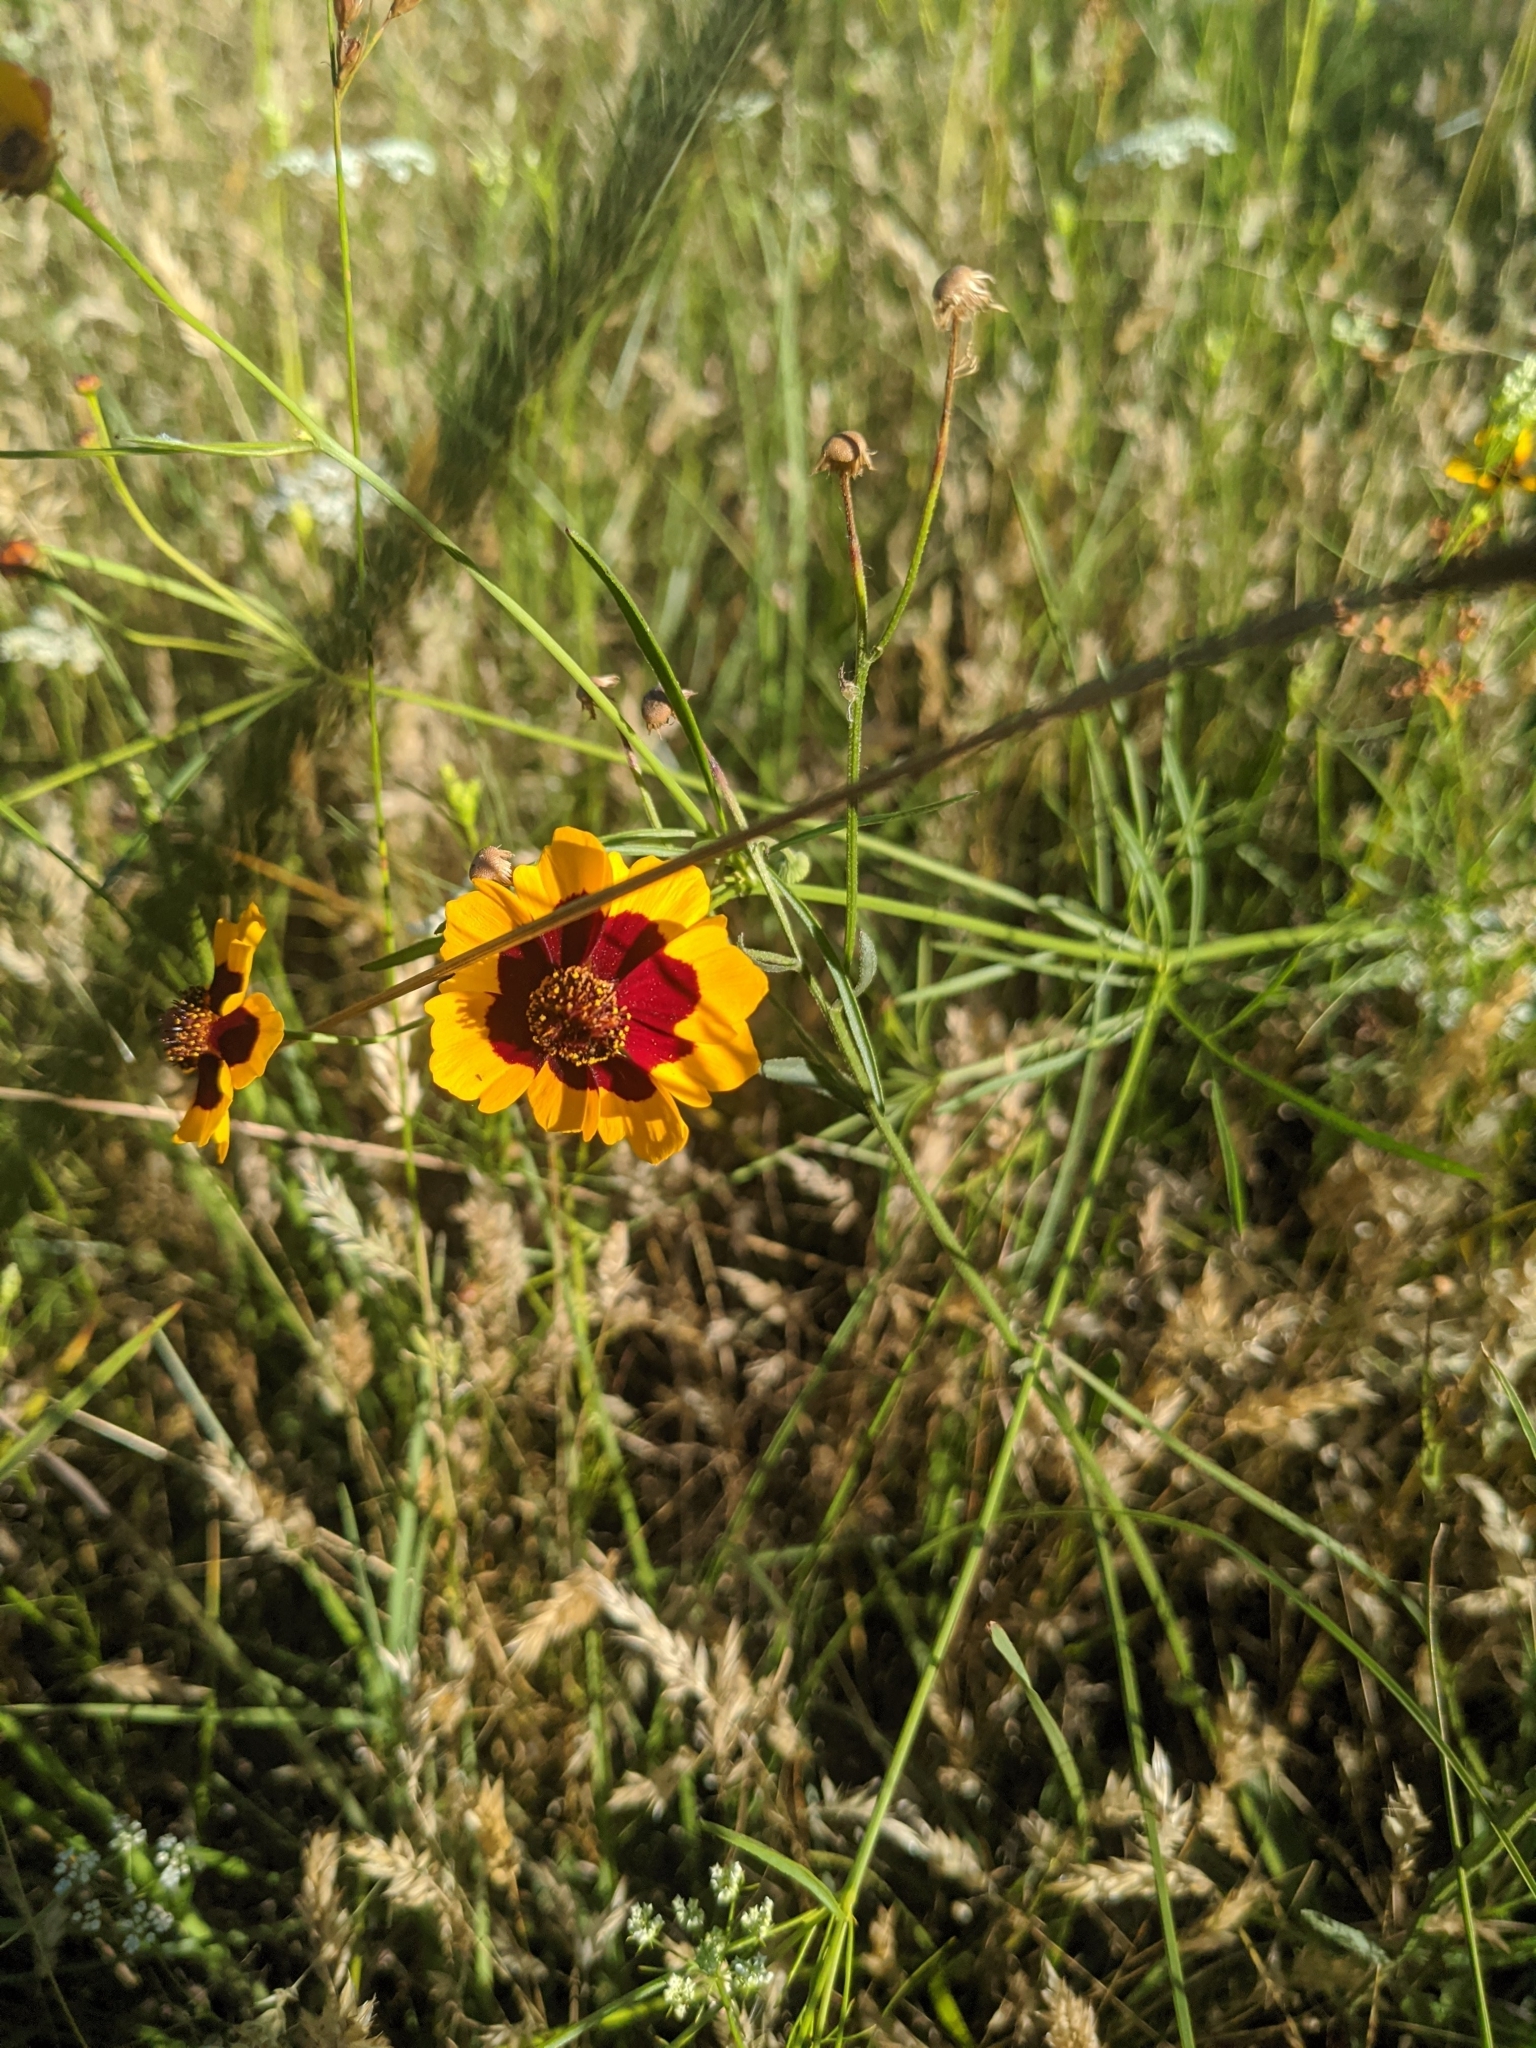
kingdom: Plantae
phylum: Tracheophyta
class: Magnoliopsida
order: Asterales
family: Asteraceae
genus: Coreopsis
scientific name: Coreopsis tinctoria
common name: Garden tickseed
